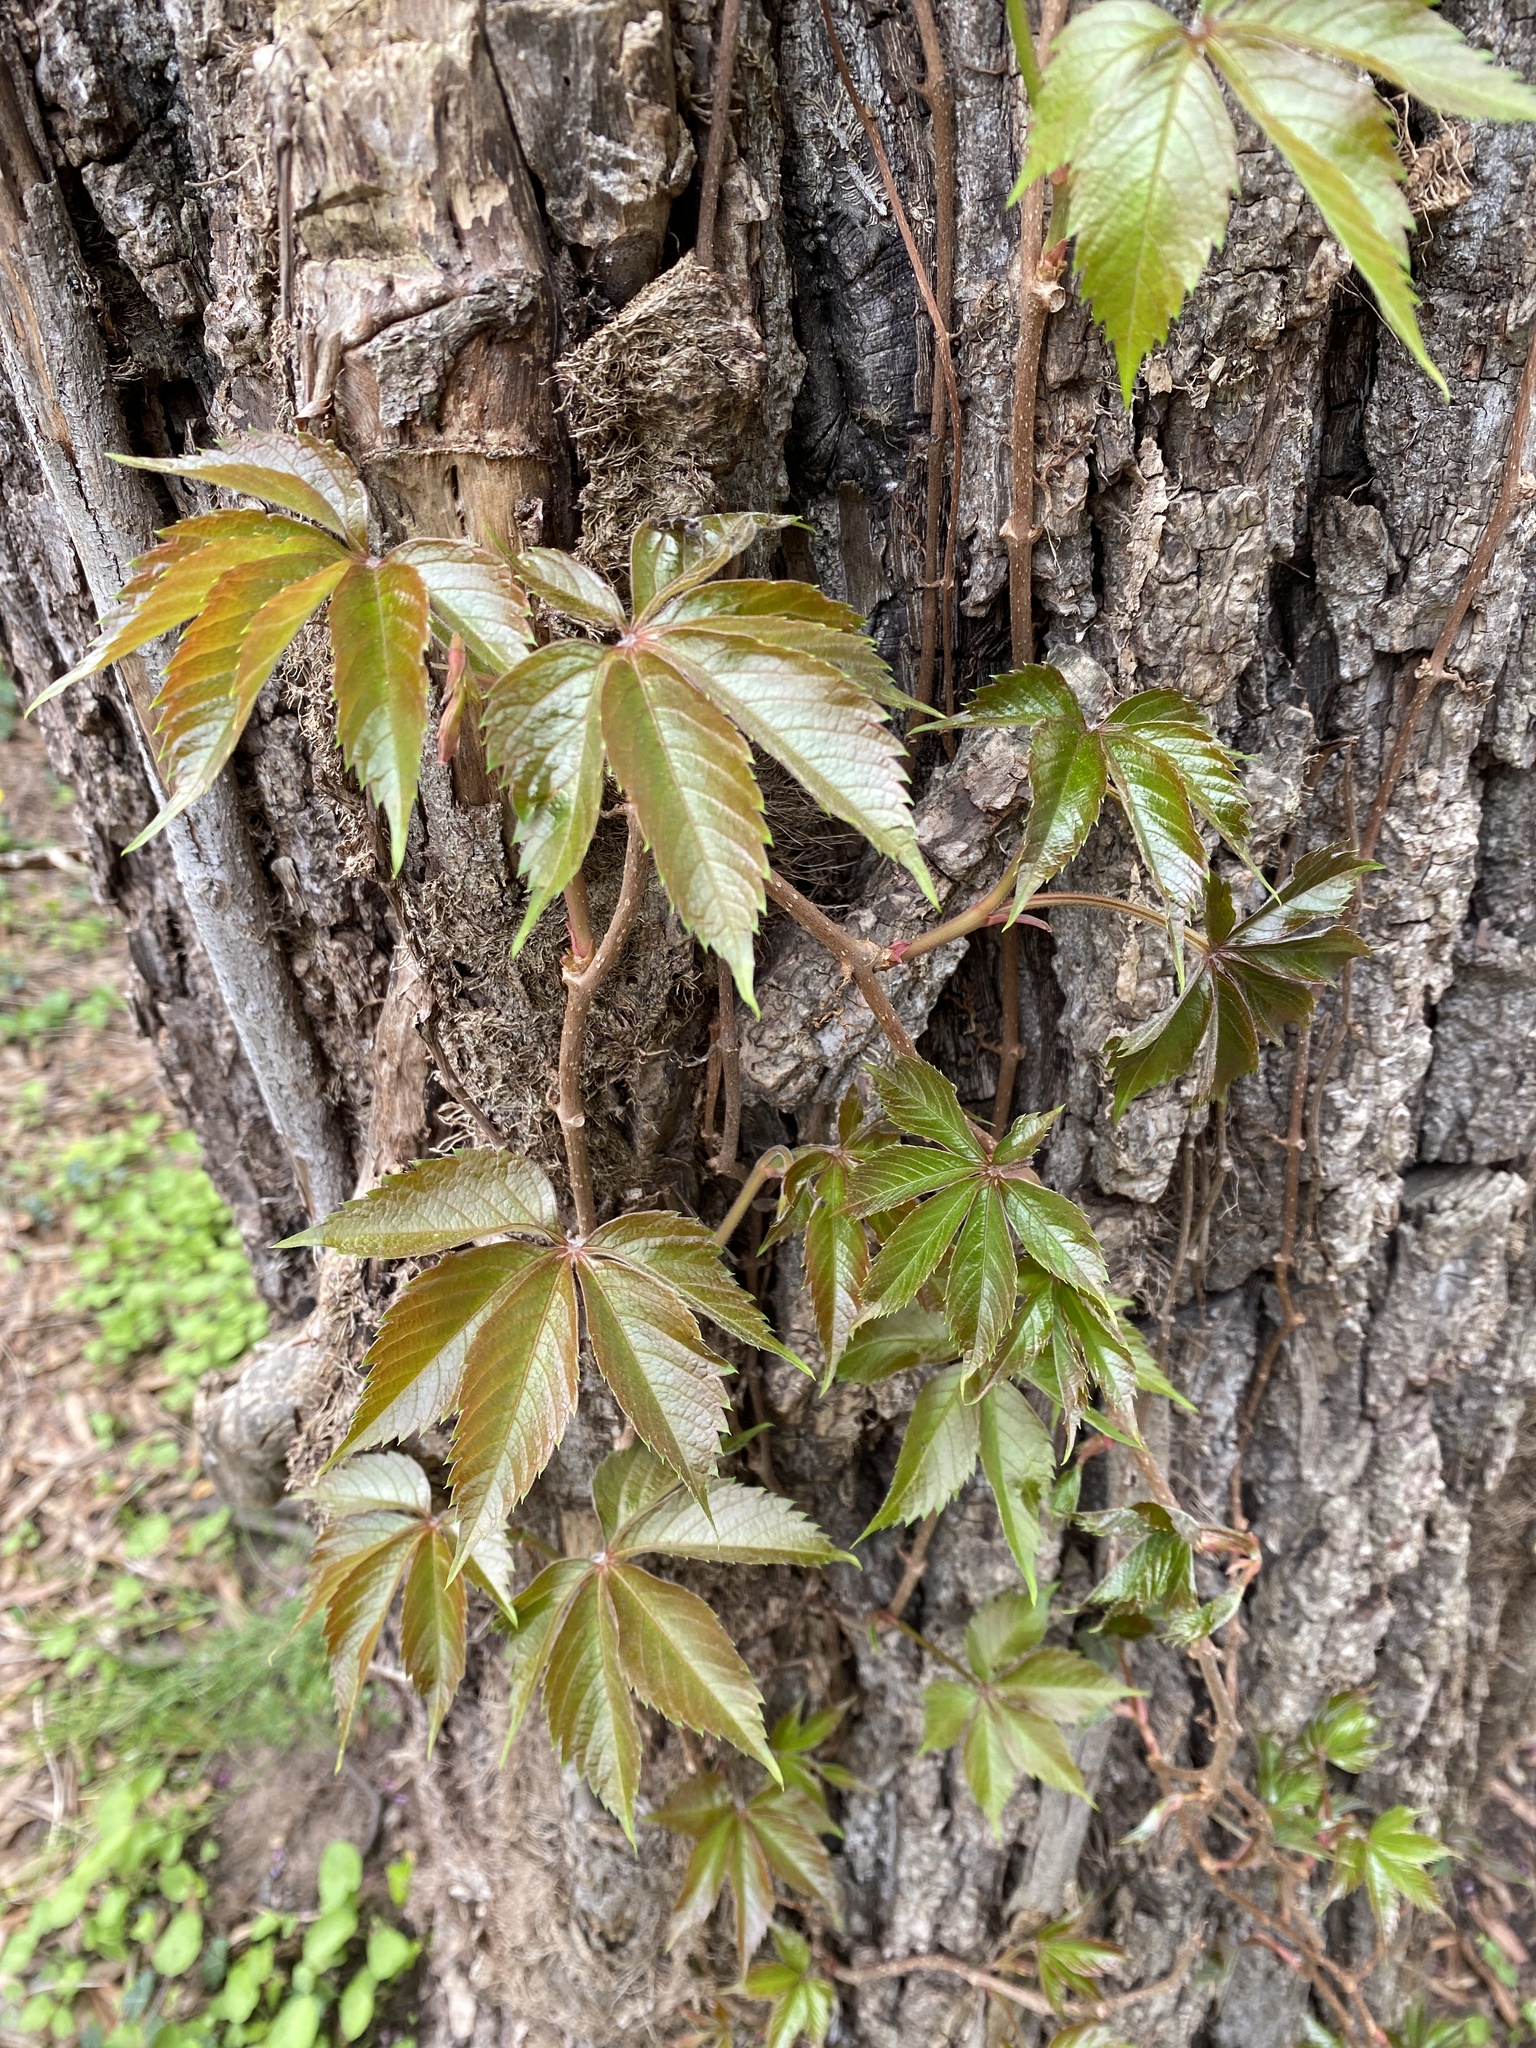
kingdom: Plantae
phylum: Tracheophyta
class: Magnoliopsida
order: Vitales
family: Vitaceae
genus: Parthenocissus
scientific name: Parthenocissus quinquefolia
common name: Virginia-creeper
